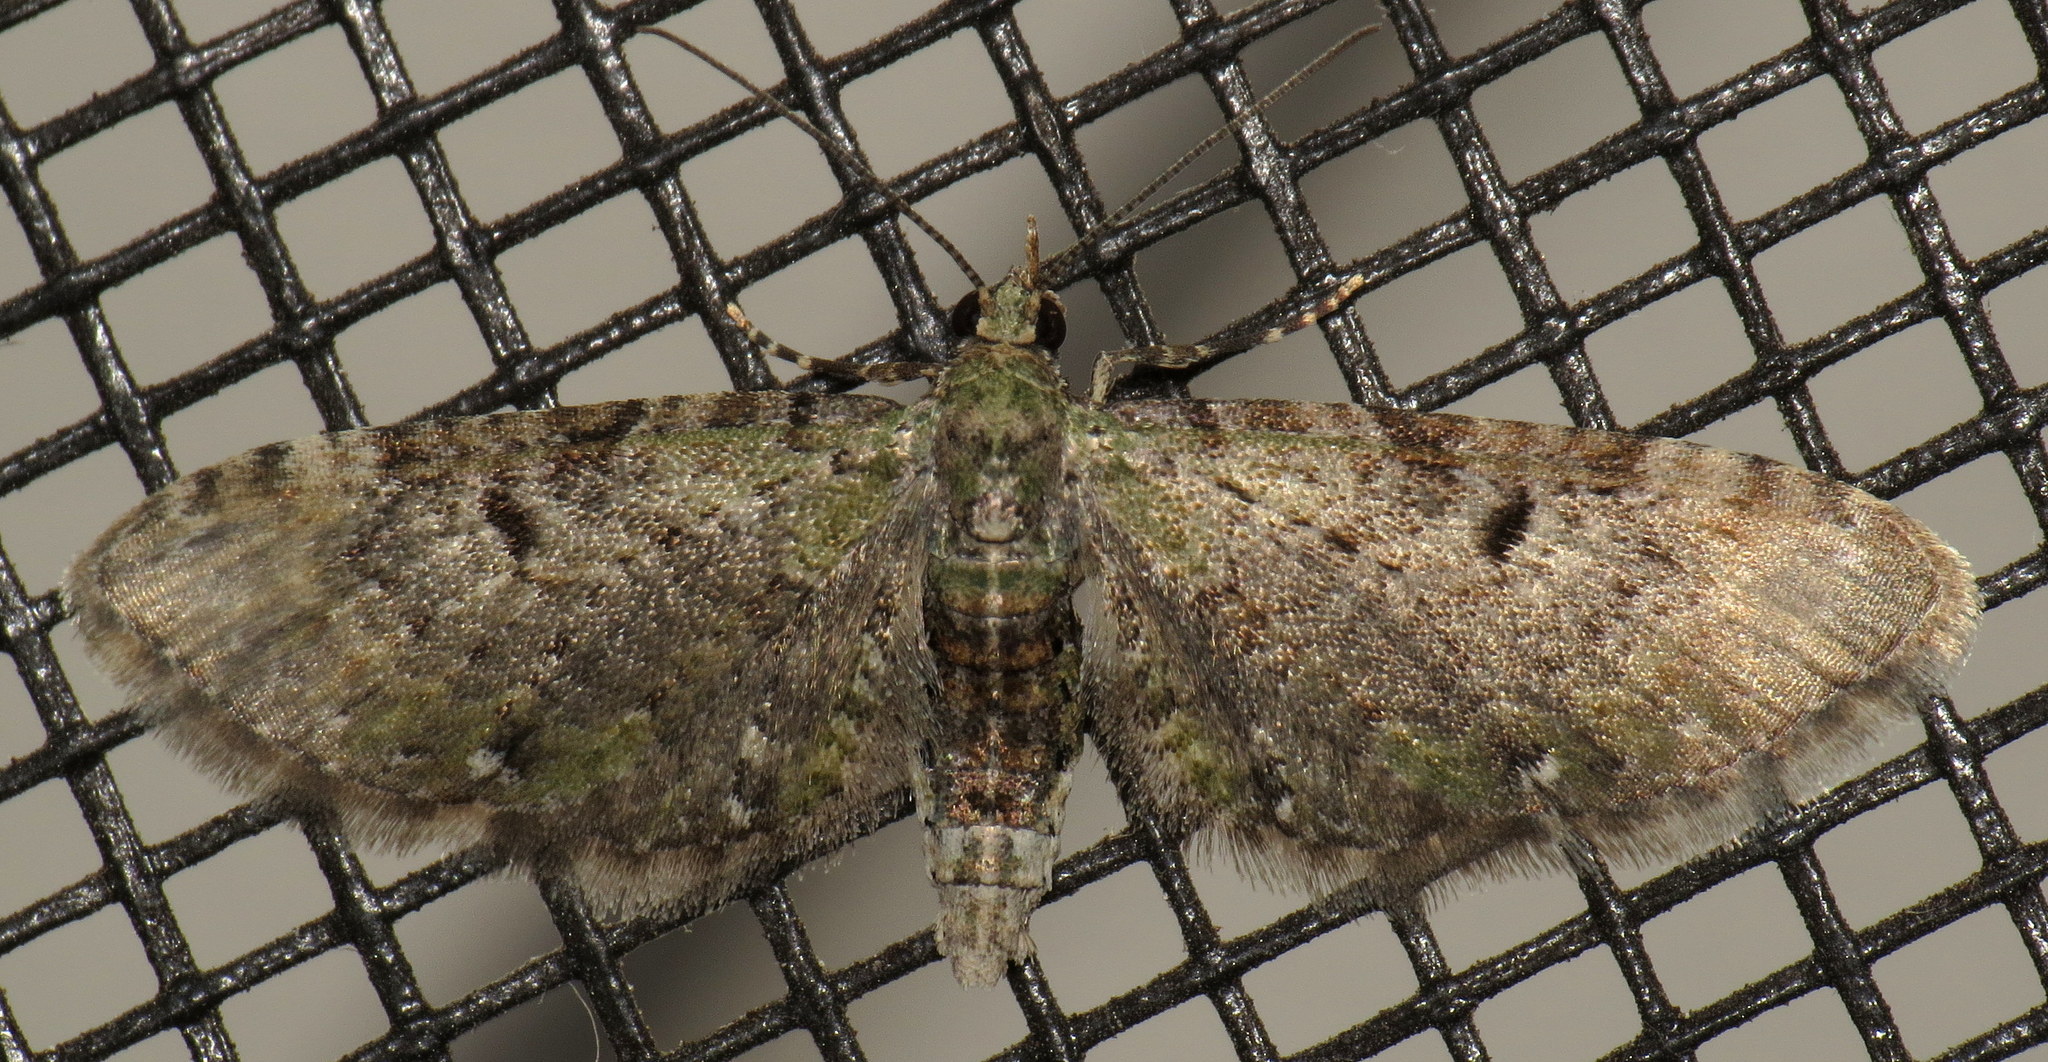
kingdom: Animalia
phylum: Arthropoda
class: Insecta
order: Lepidoptera
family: Geometridae
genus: Eupithecia
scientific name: Eupithecia miserulata
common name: Common eupithecia
